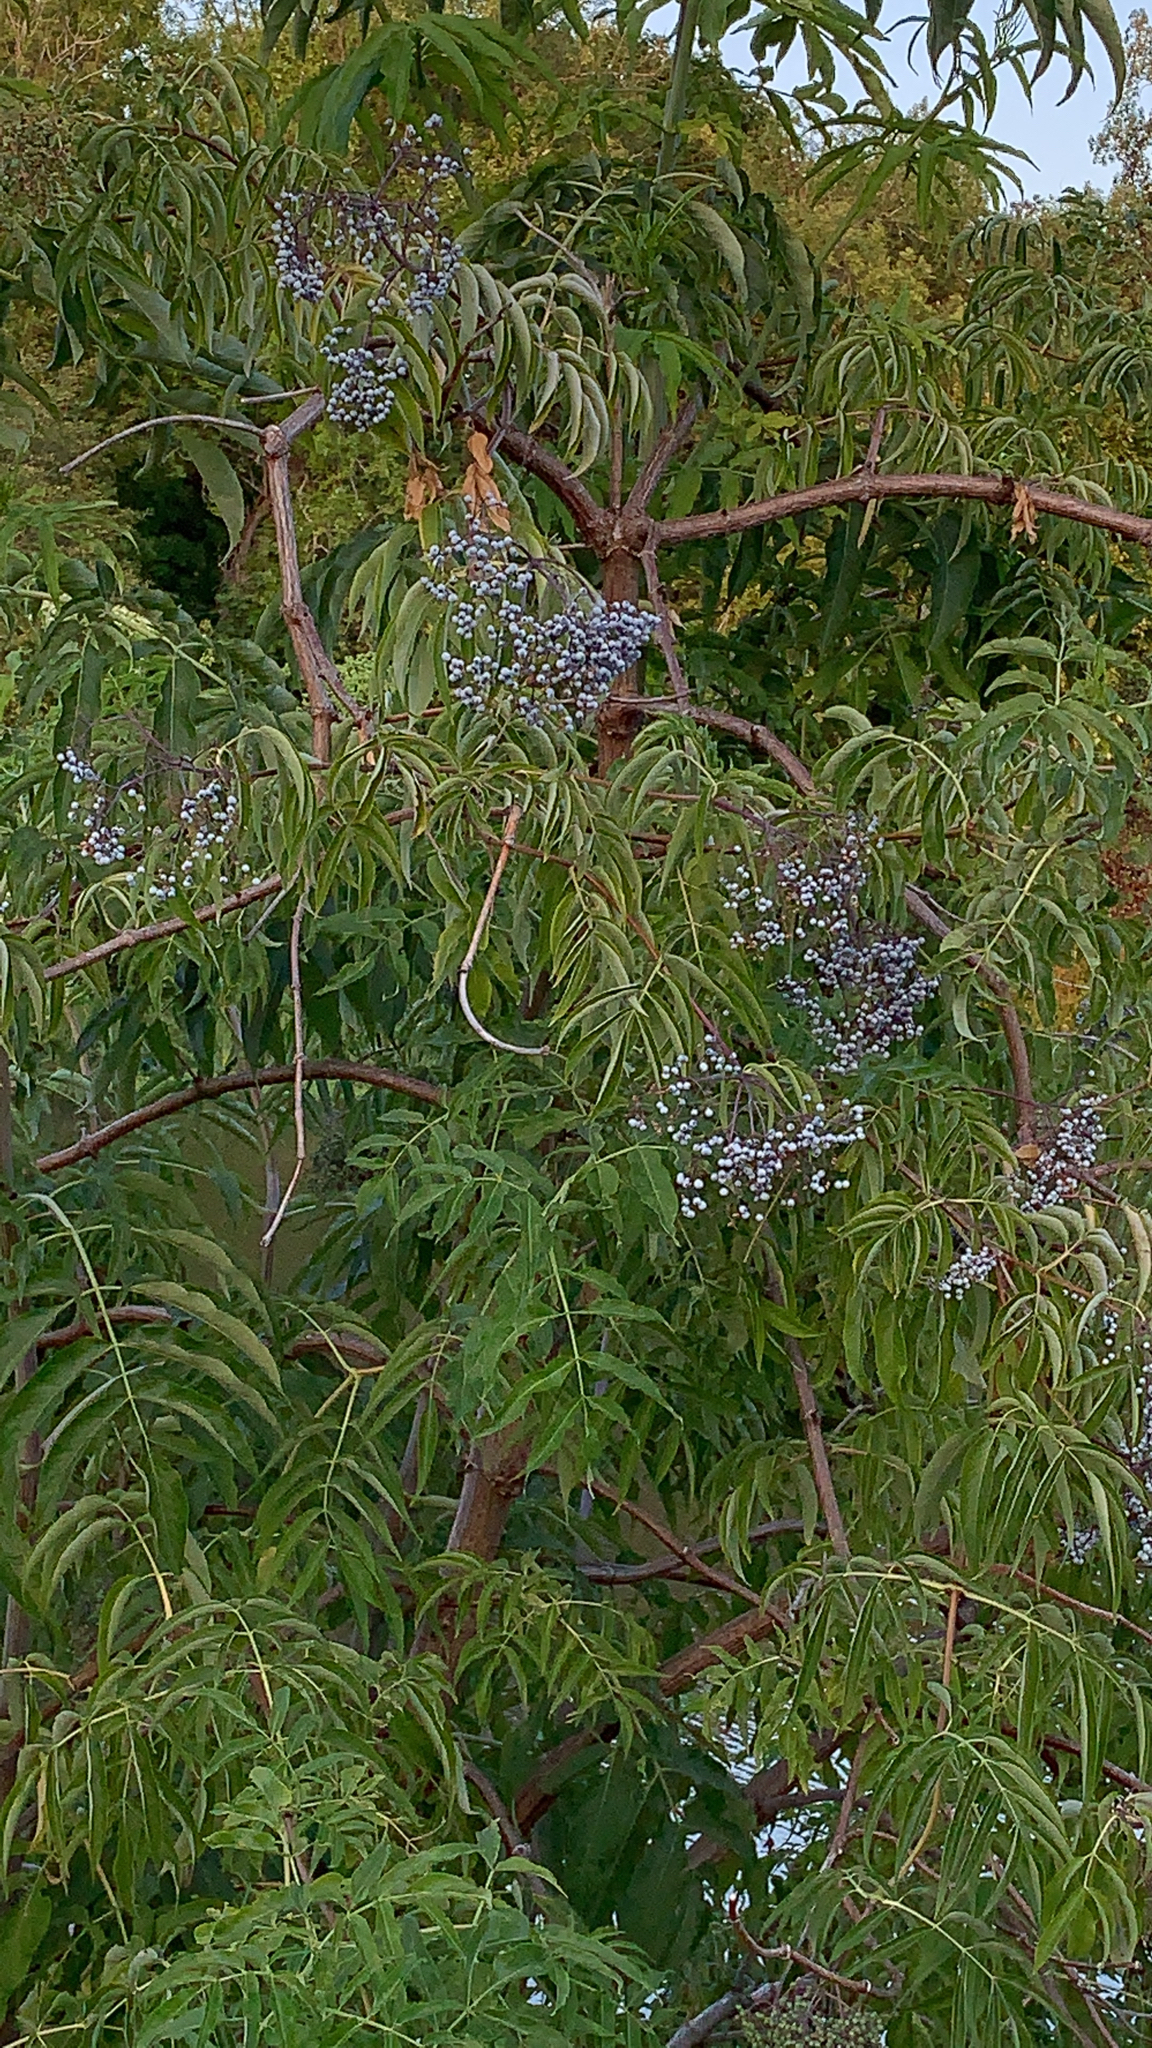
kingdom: Plantae
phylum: Tracheophyta
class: Magnoliopsida
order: Dipsacales
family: Viburnaceae
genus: Sambucus
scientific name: Sambucus cerulea
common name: Blue elder
